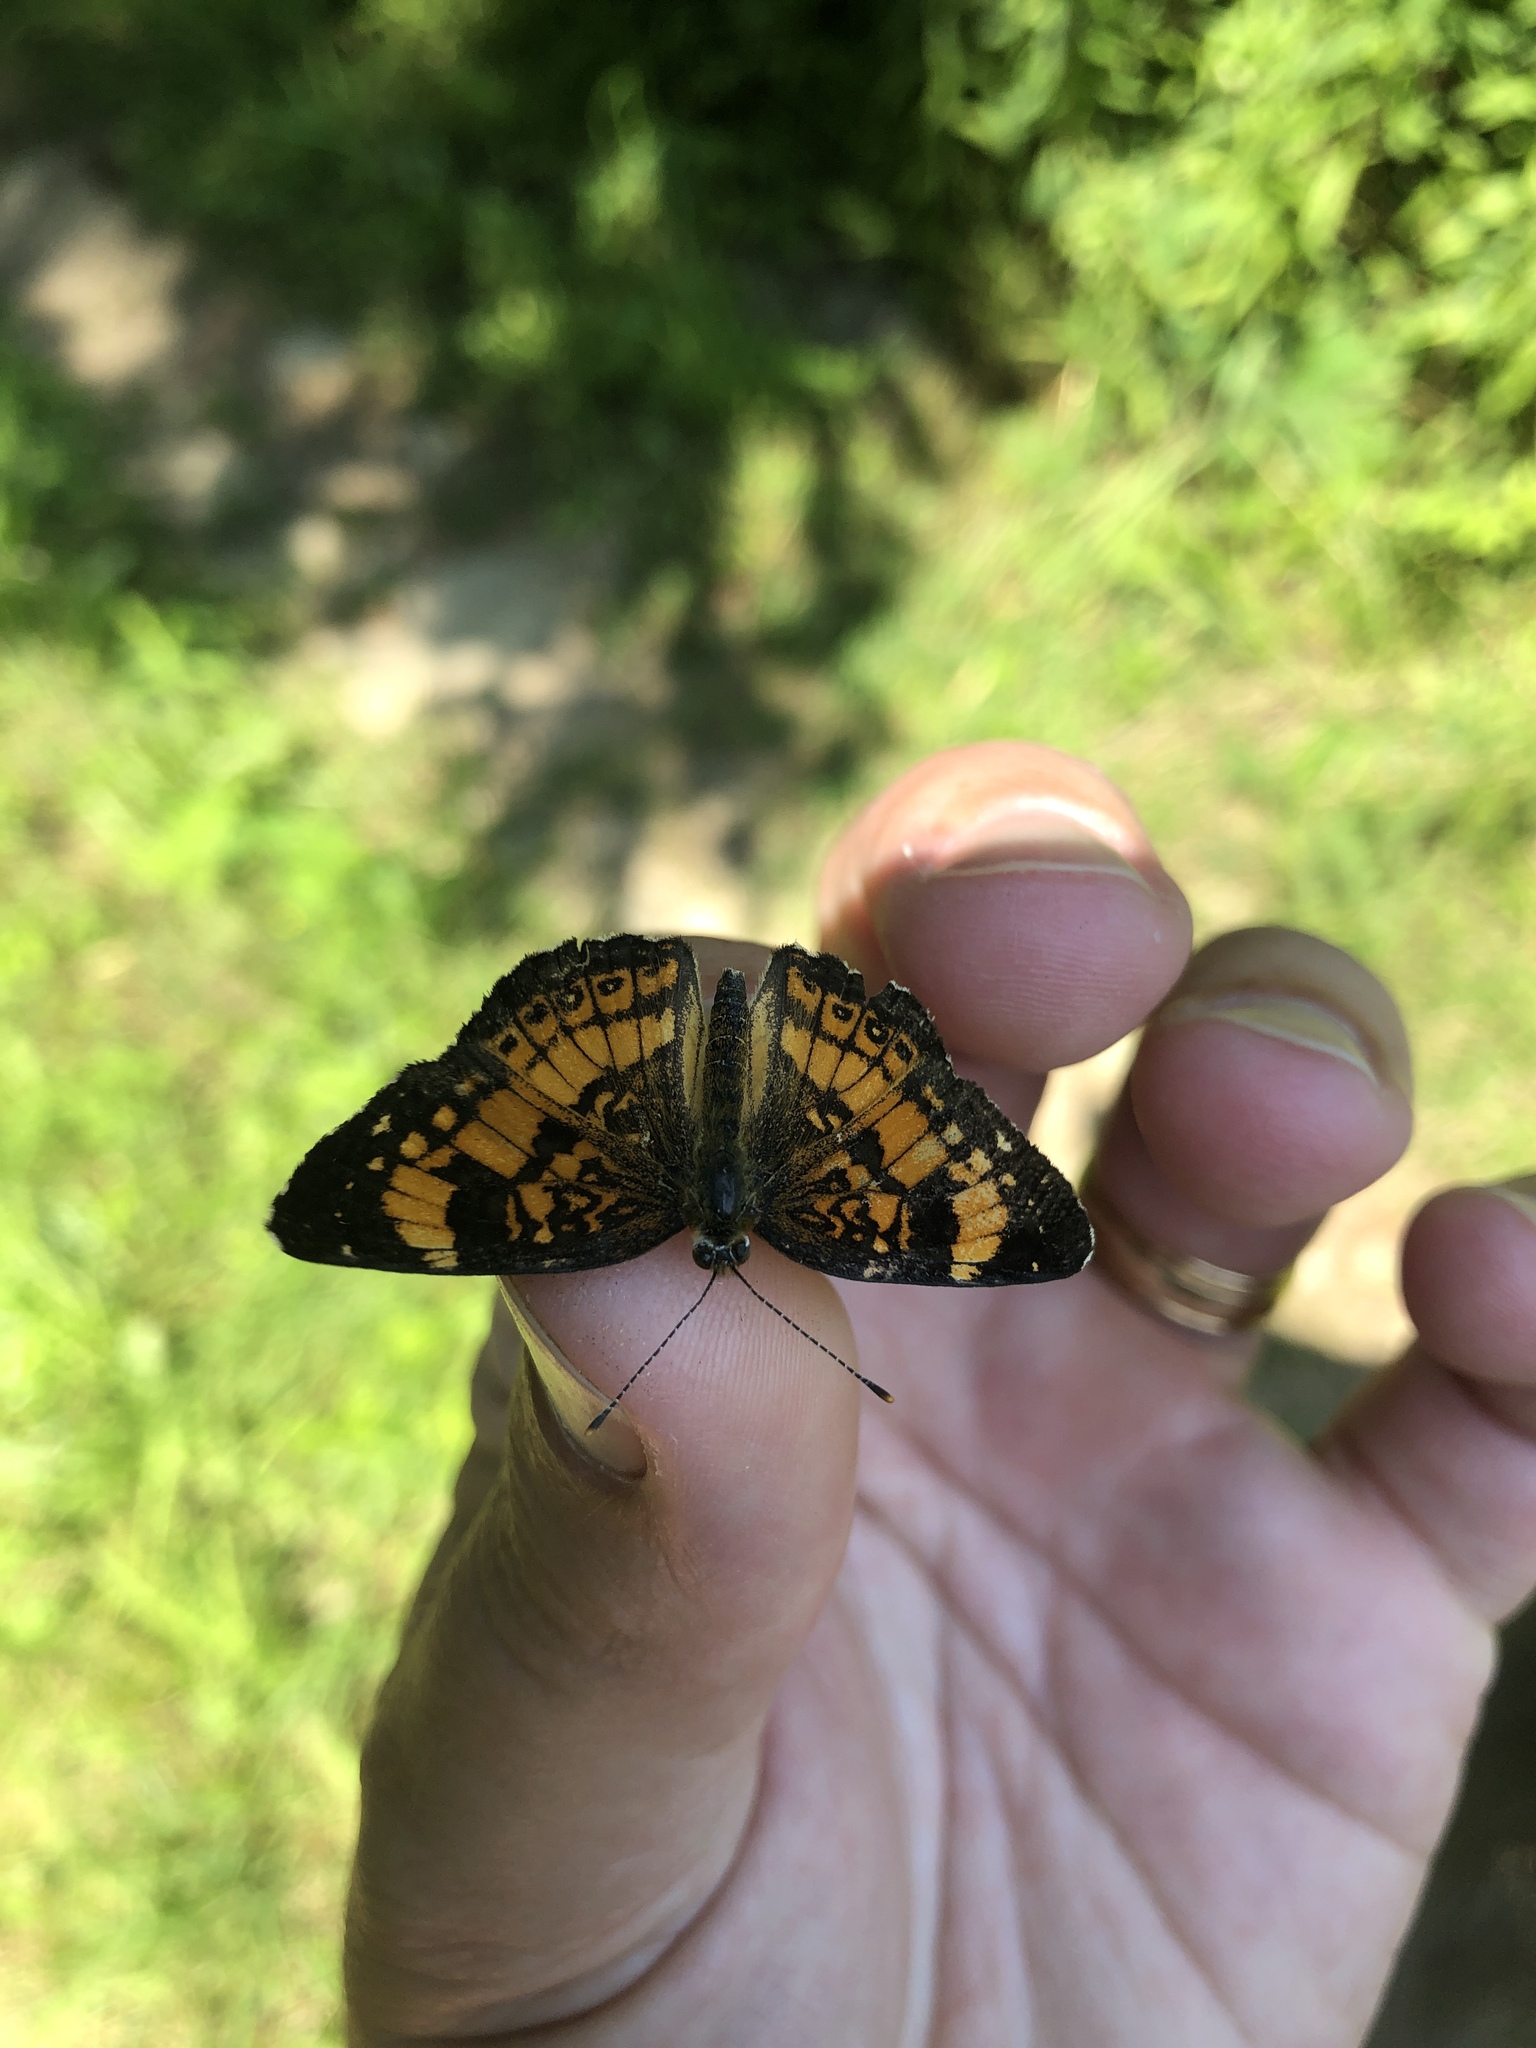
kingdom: Animalia
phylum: Arthropoda
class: Insecta
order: Lepidoptera
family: Nymphalidae
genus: Chlosyne
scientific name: Chlosyne nycteis
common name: Silvery checkerspot
